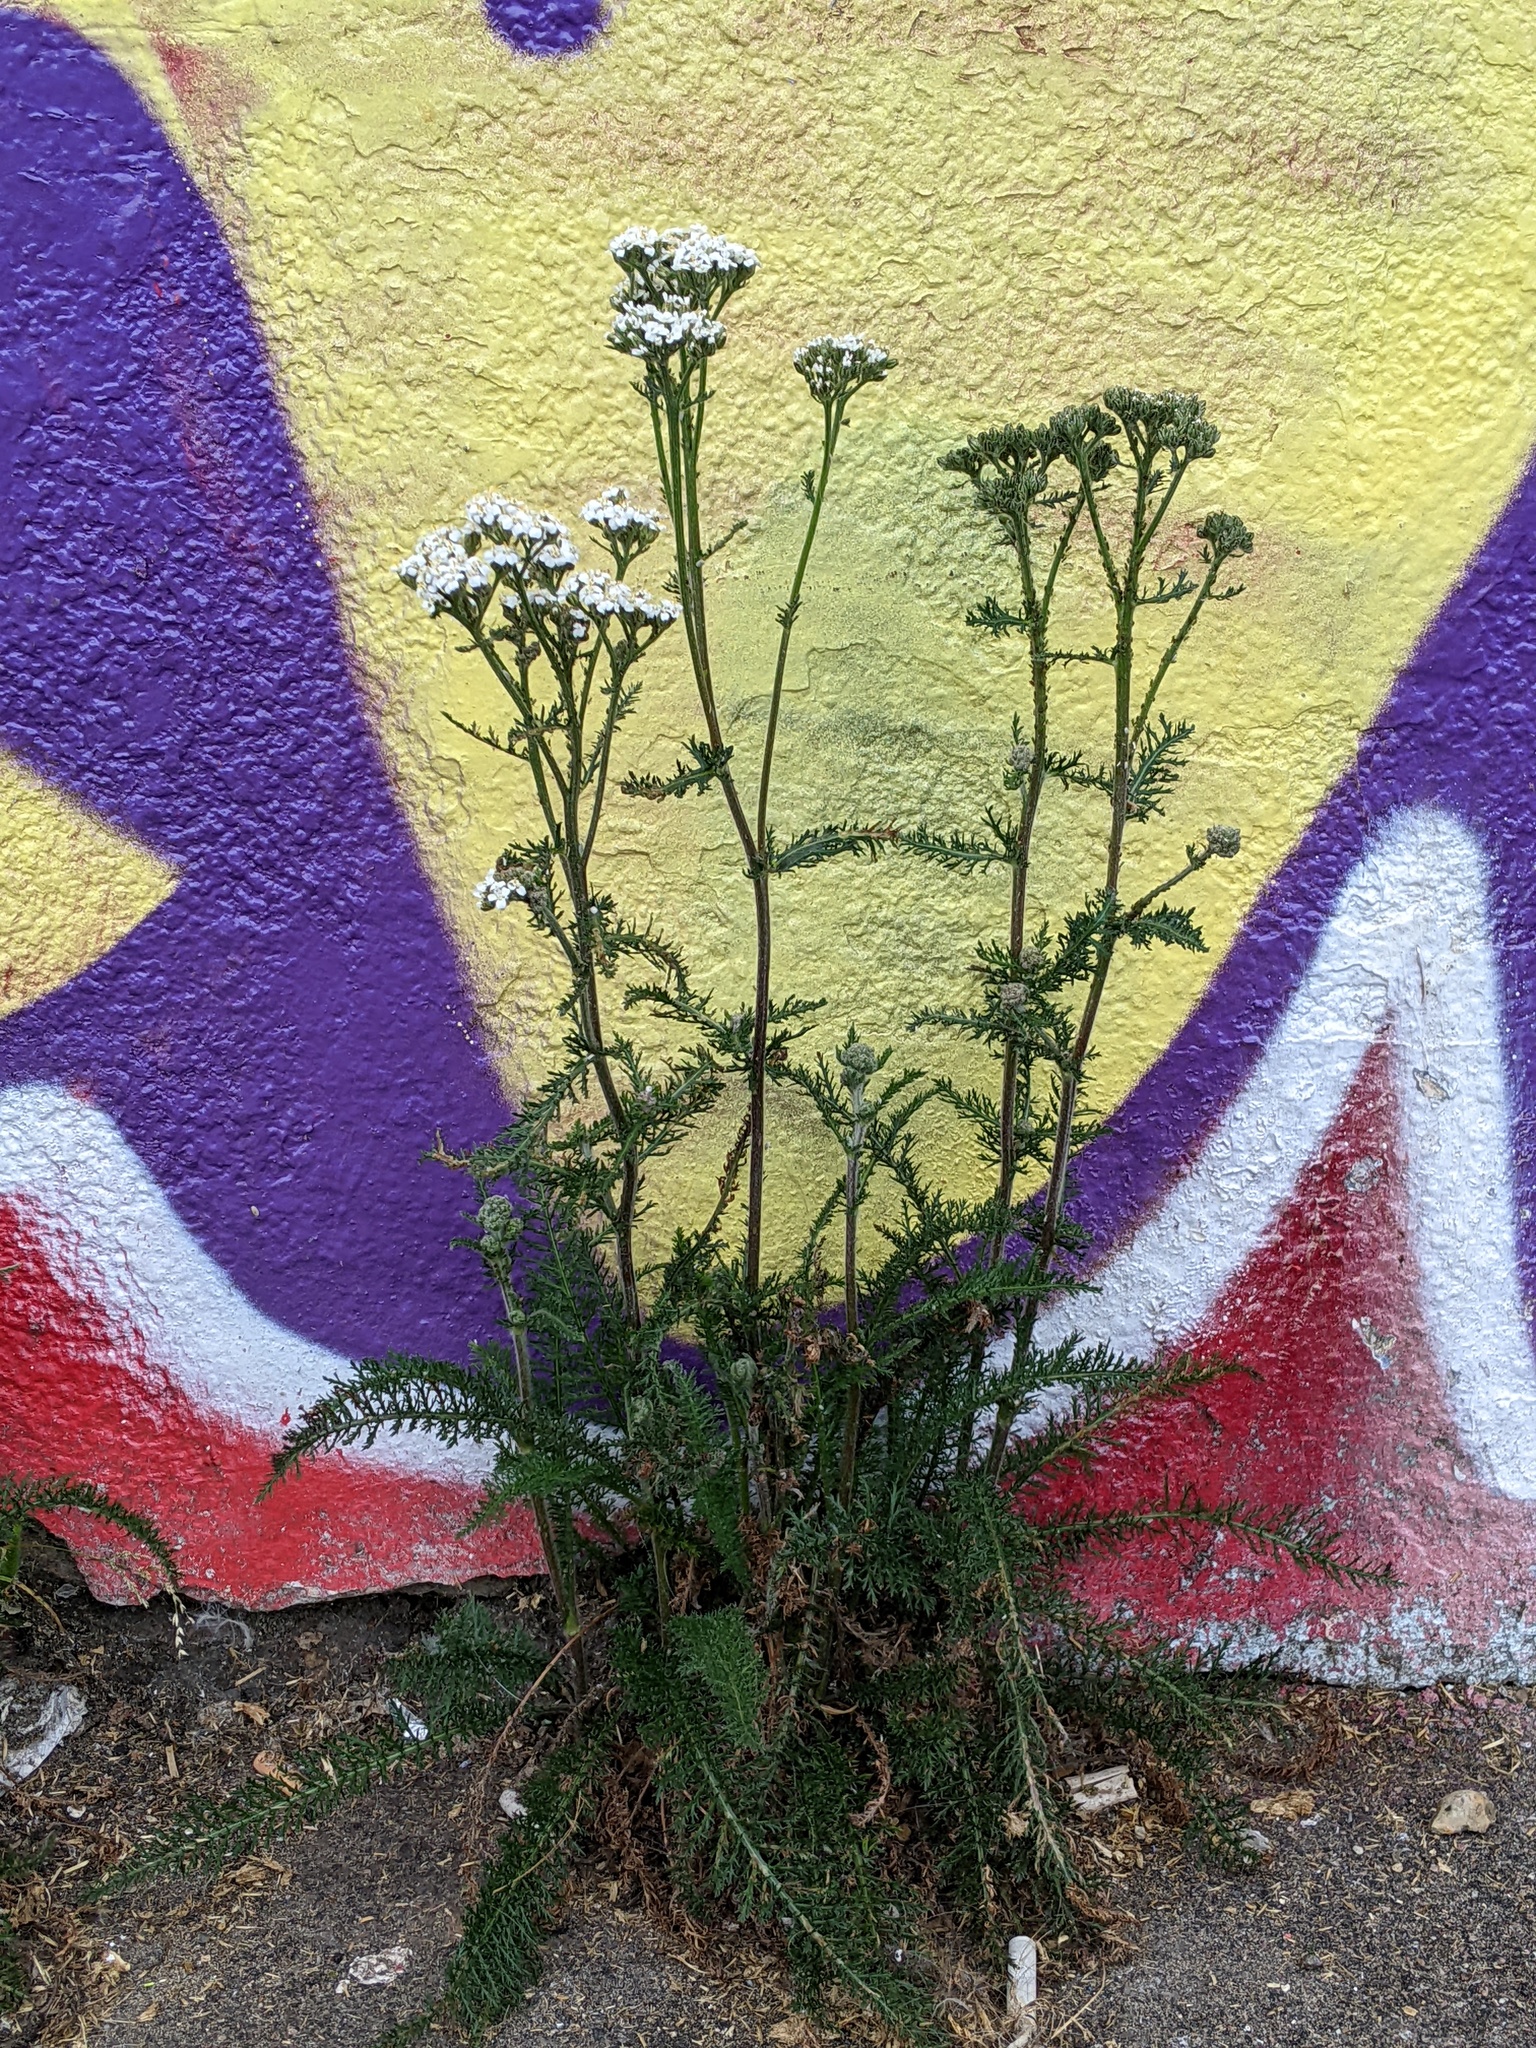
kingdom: Plantae
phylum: Tracheophyta
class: Magnoliopsida
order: Asterales
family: Asteraceae
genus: Achillea
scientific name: Achillea millefolium
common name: Yarrow
